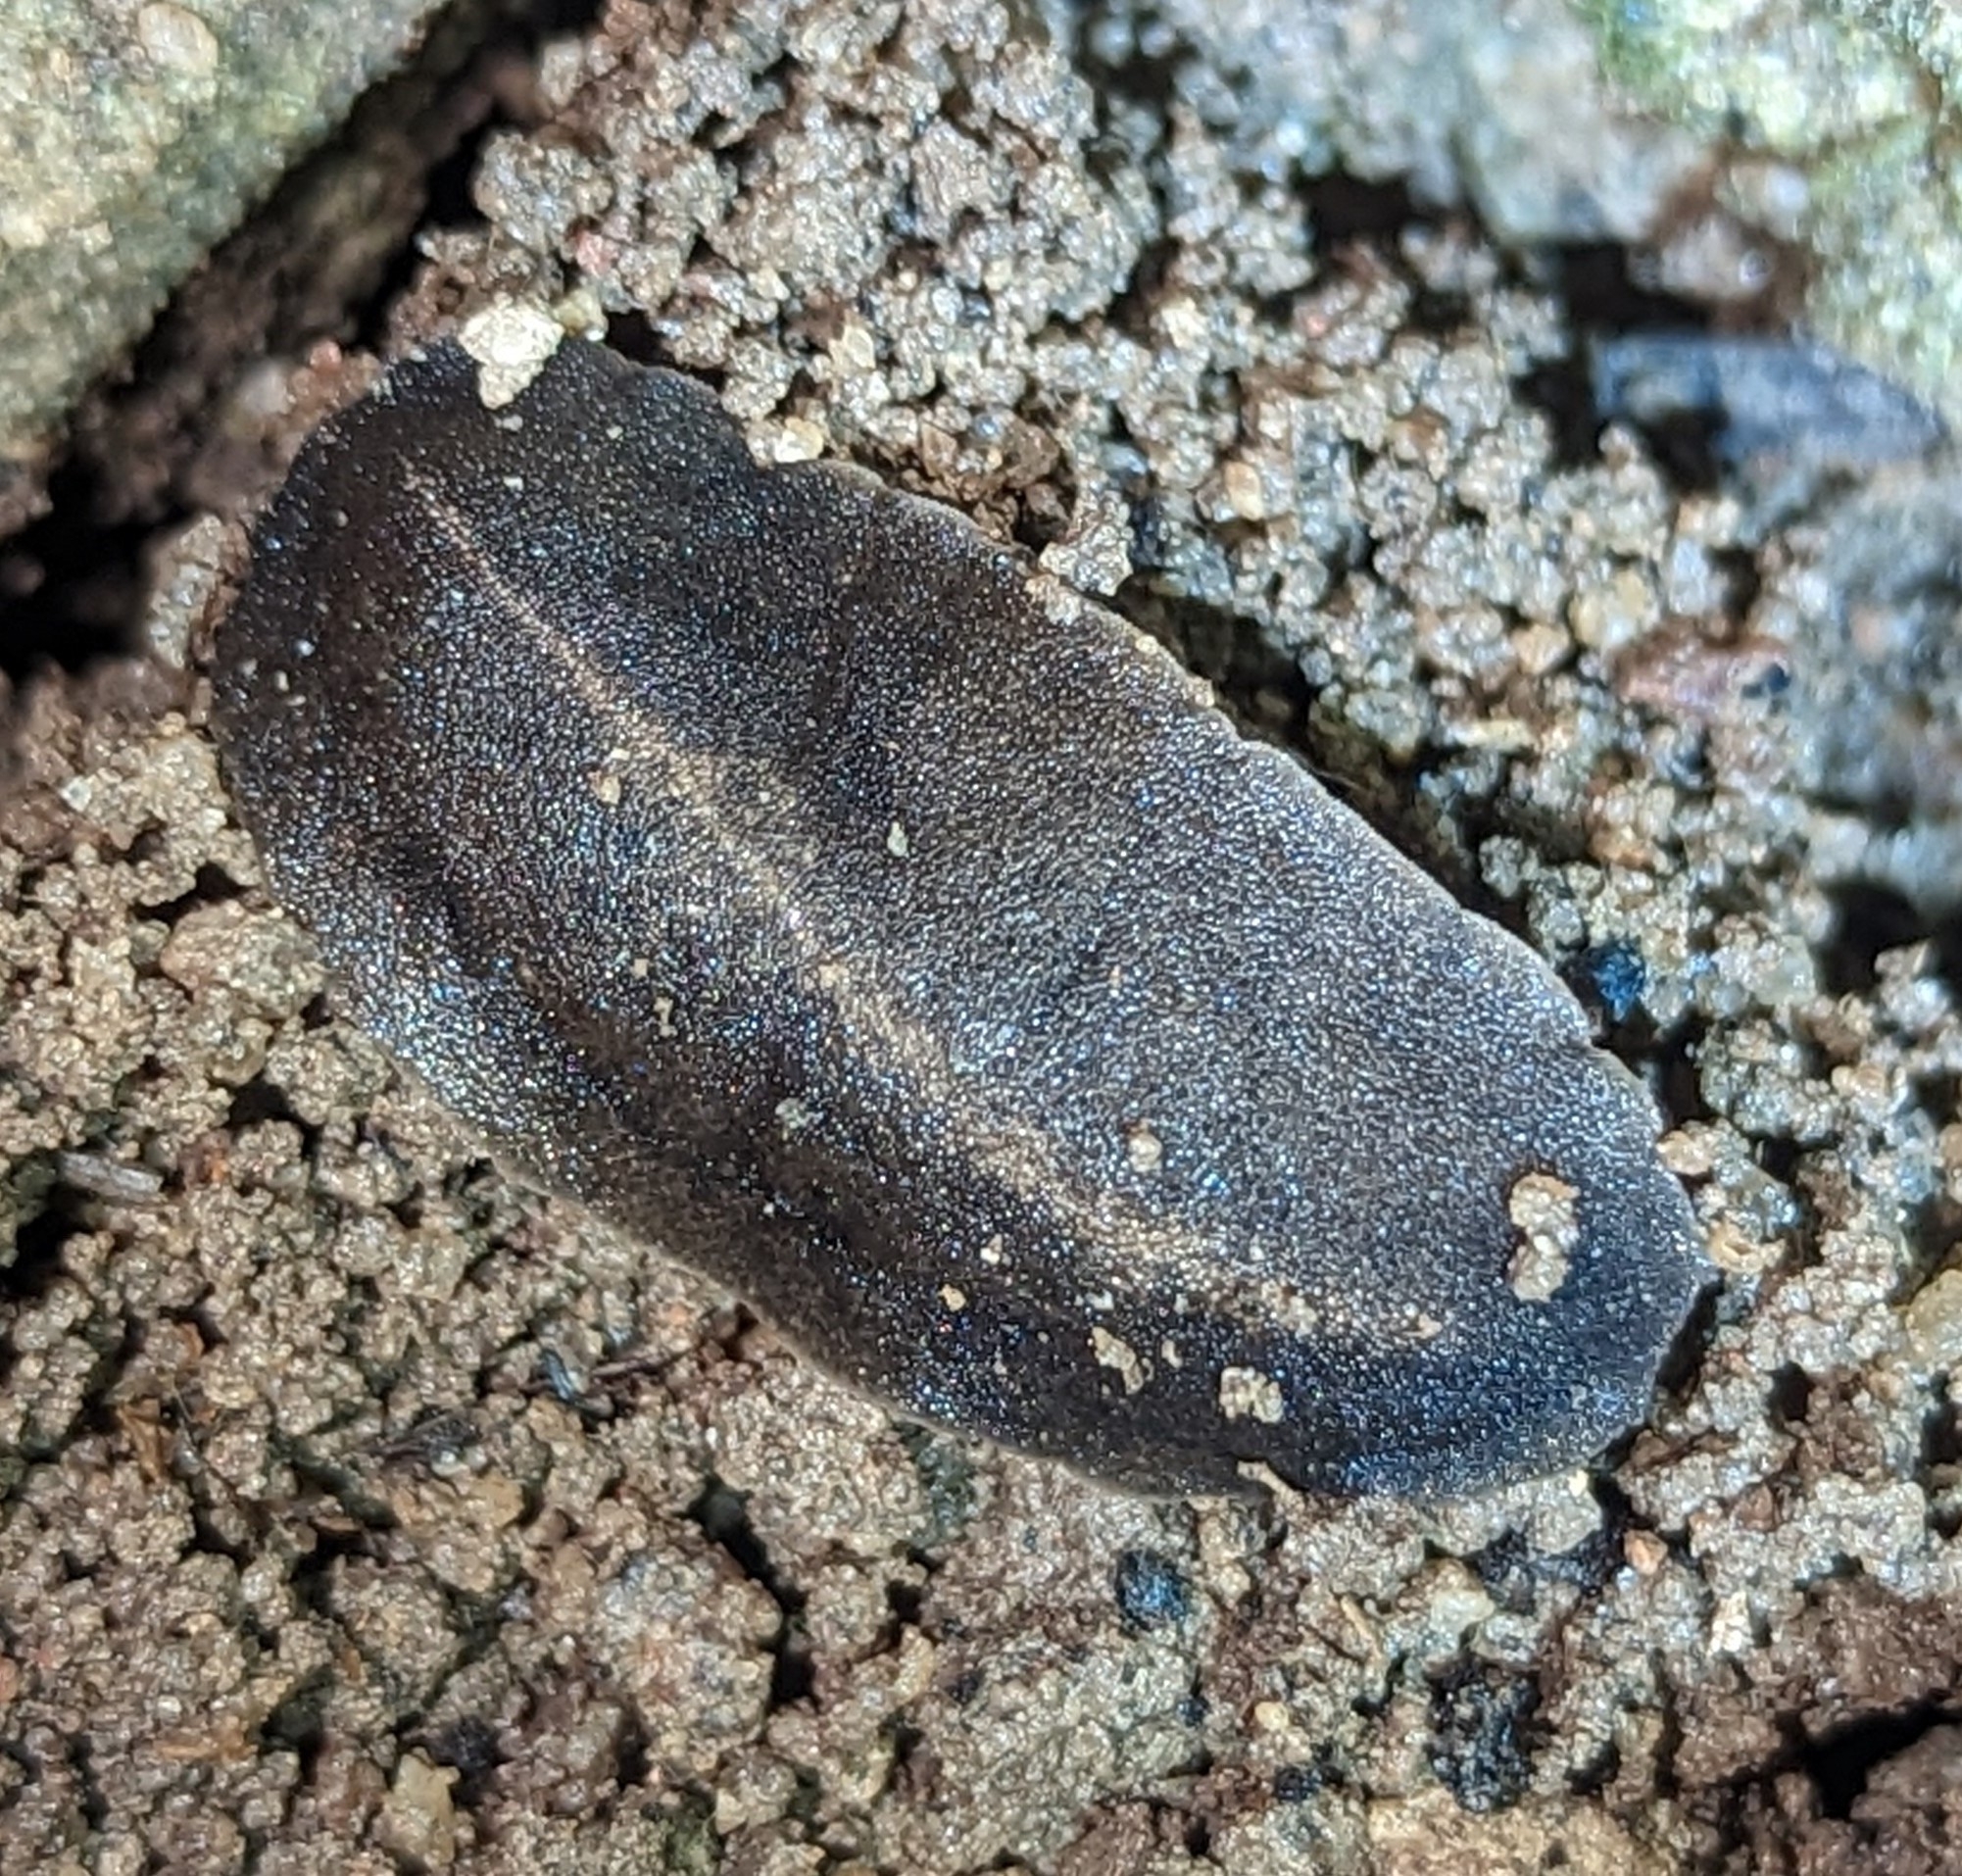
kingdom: Animalia
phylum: Mollusca
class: Gastropoda
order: Systellommatophora
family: Veronicellidae
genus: Laevicaulis
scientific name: Laevicaulis alte
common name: Tropical leatherleaf
